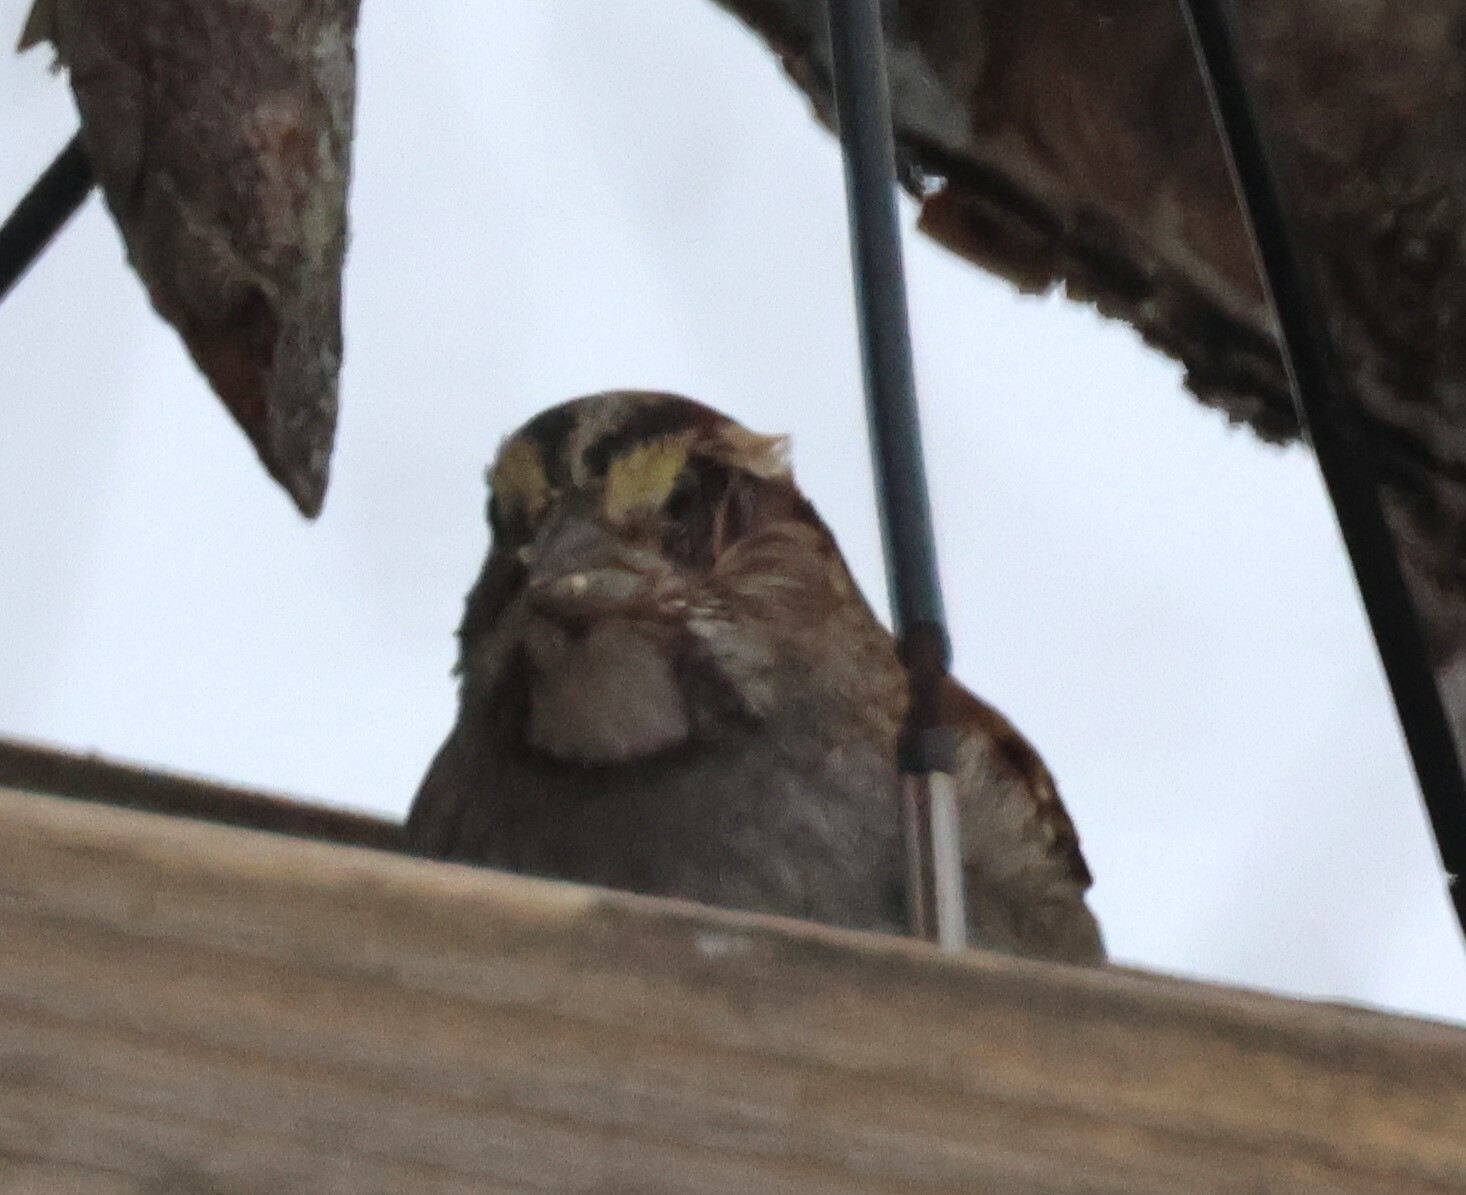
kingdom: Animalia
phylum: Chordata
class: Aves
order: Passeriformes
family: Passerellidae
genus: Zonotrichia
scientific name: Zonotrichia albicollis
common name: White-throated sparrow
